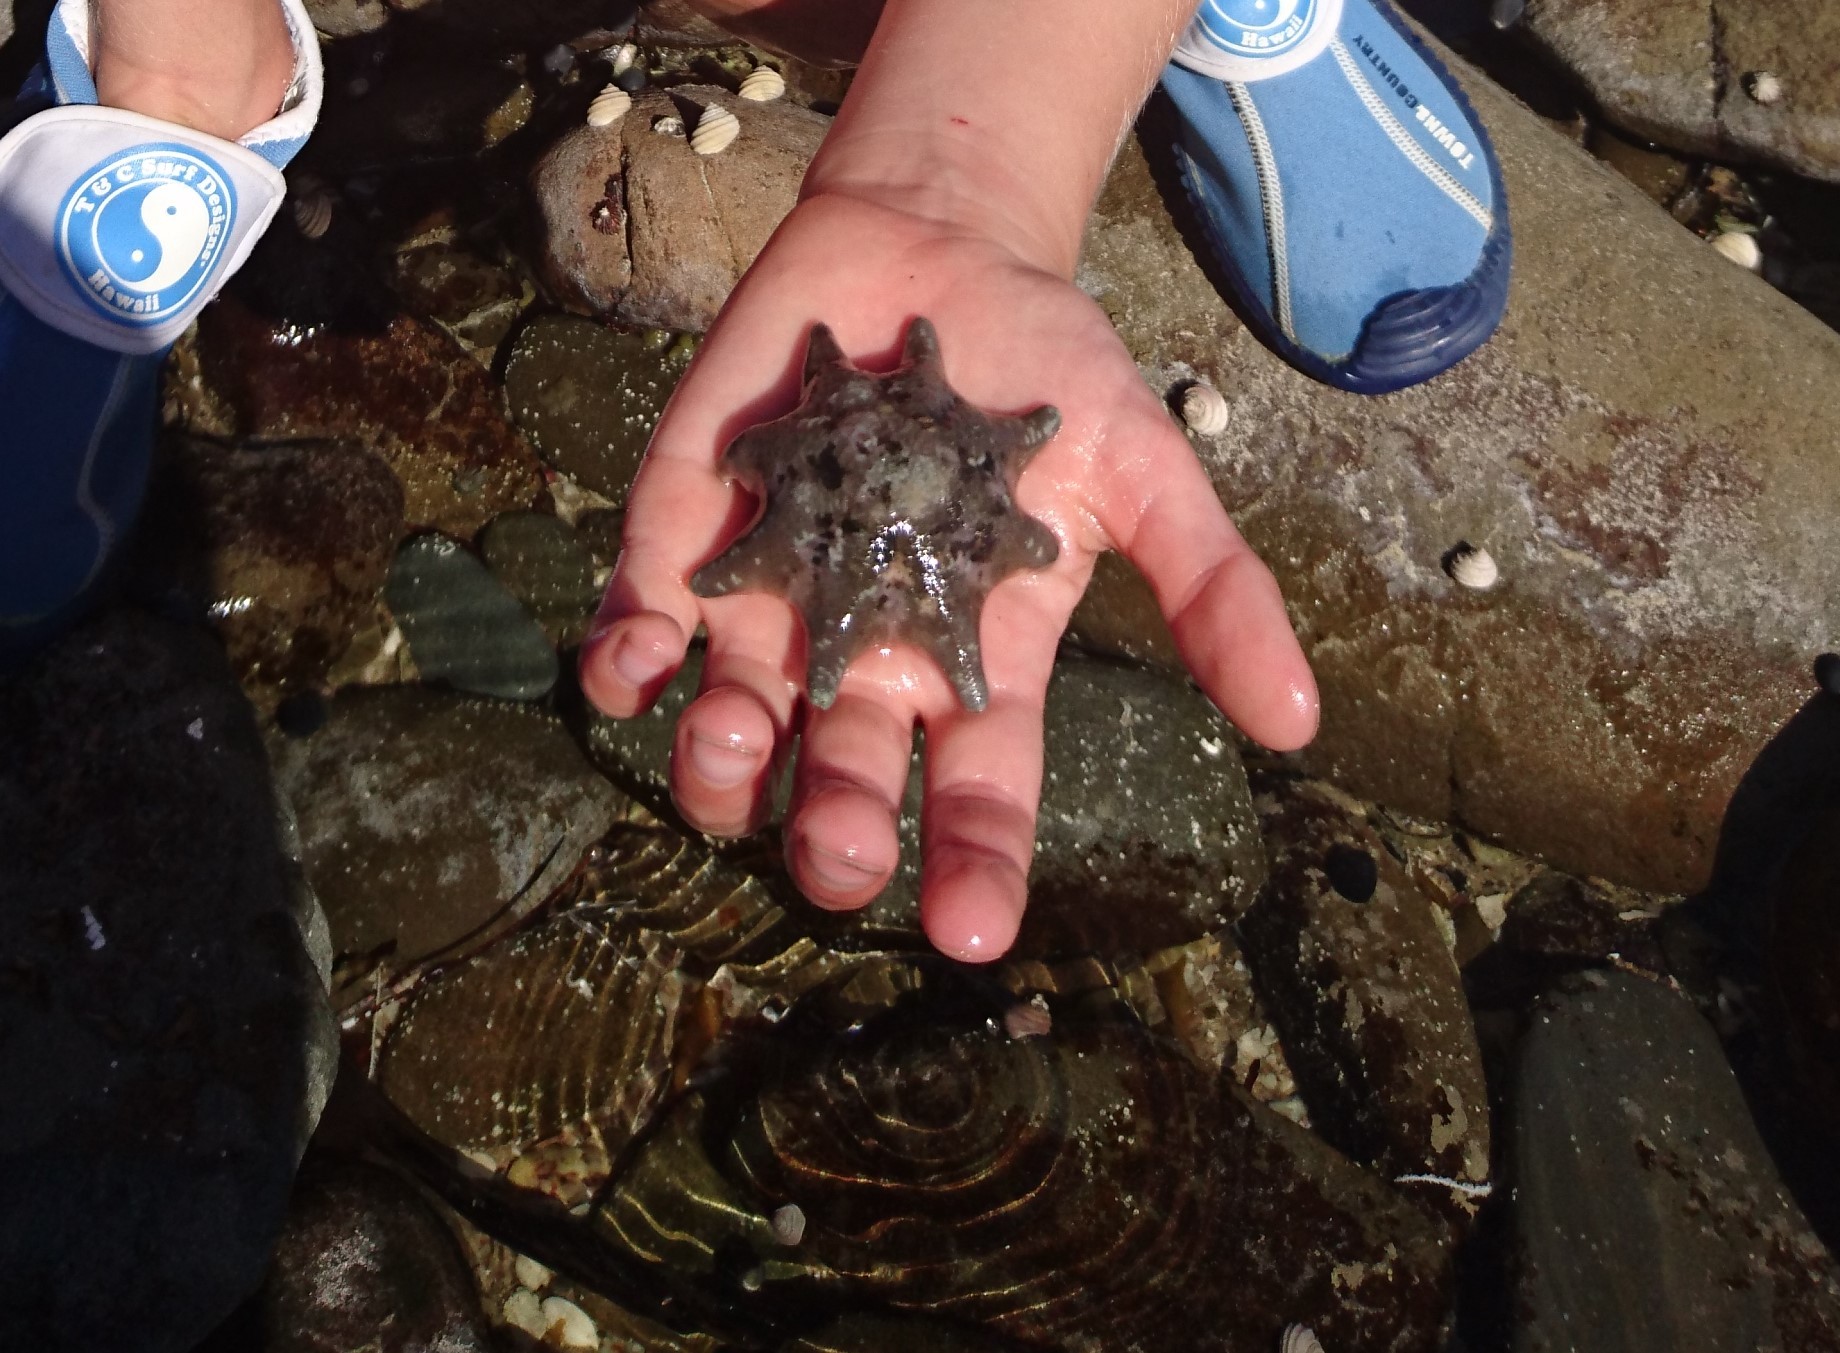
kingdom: Animalia
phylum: Echinodermata
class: Asteroidea
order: Valvatida
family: Asterinidae
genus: Meridiastra
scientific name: Meridiastra calcar
